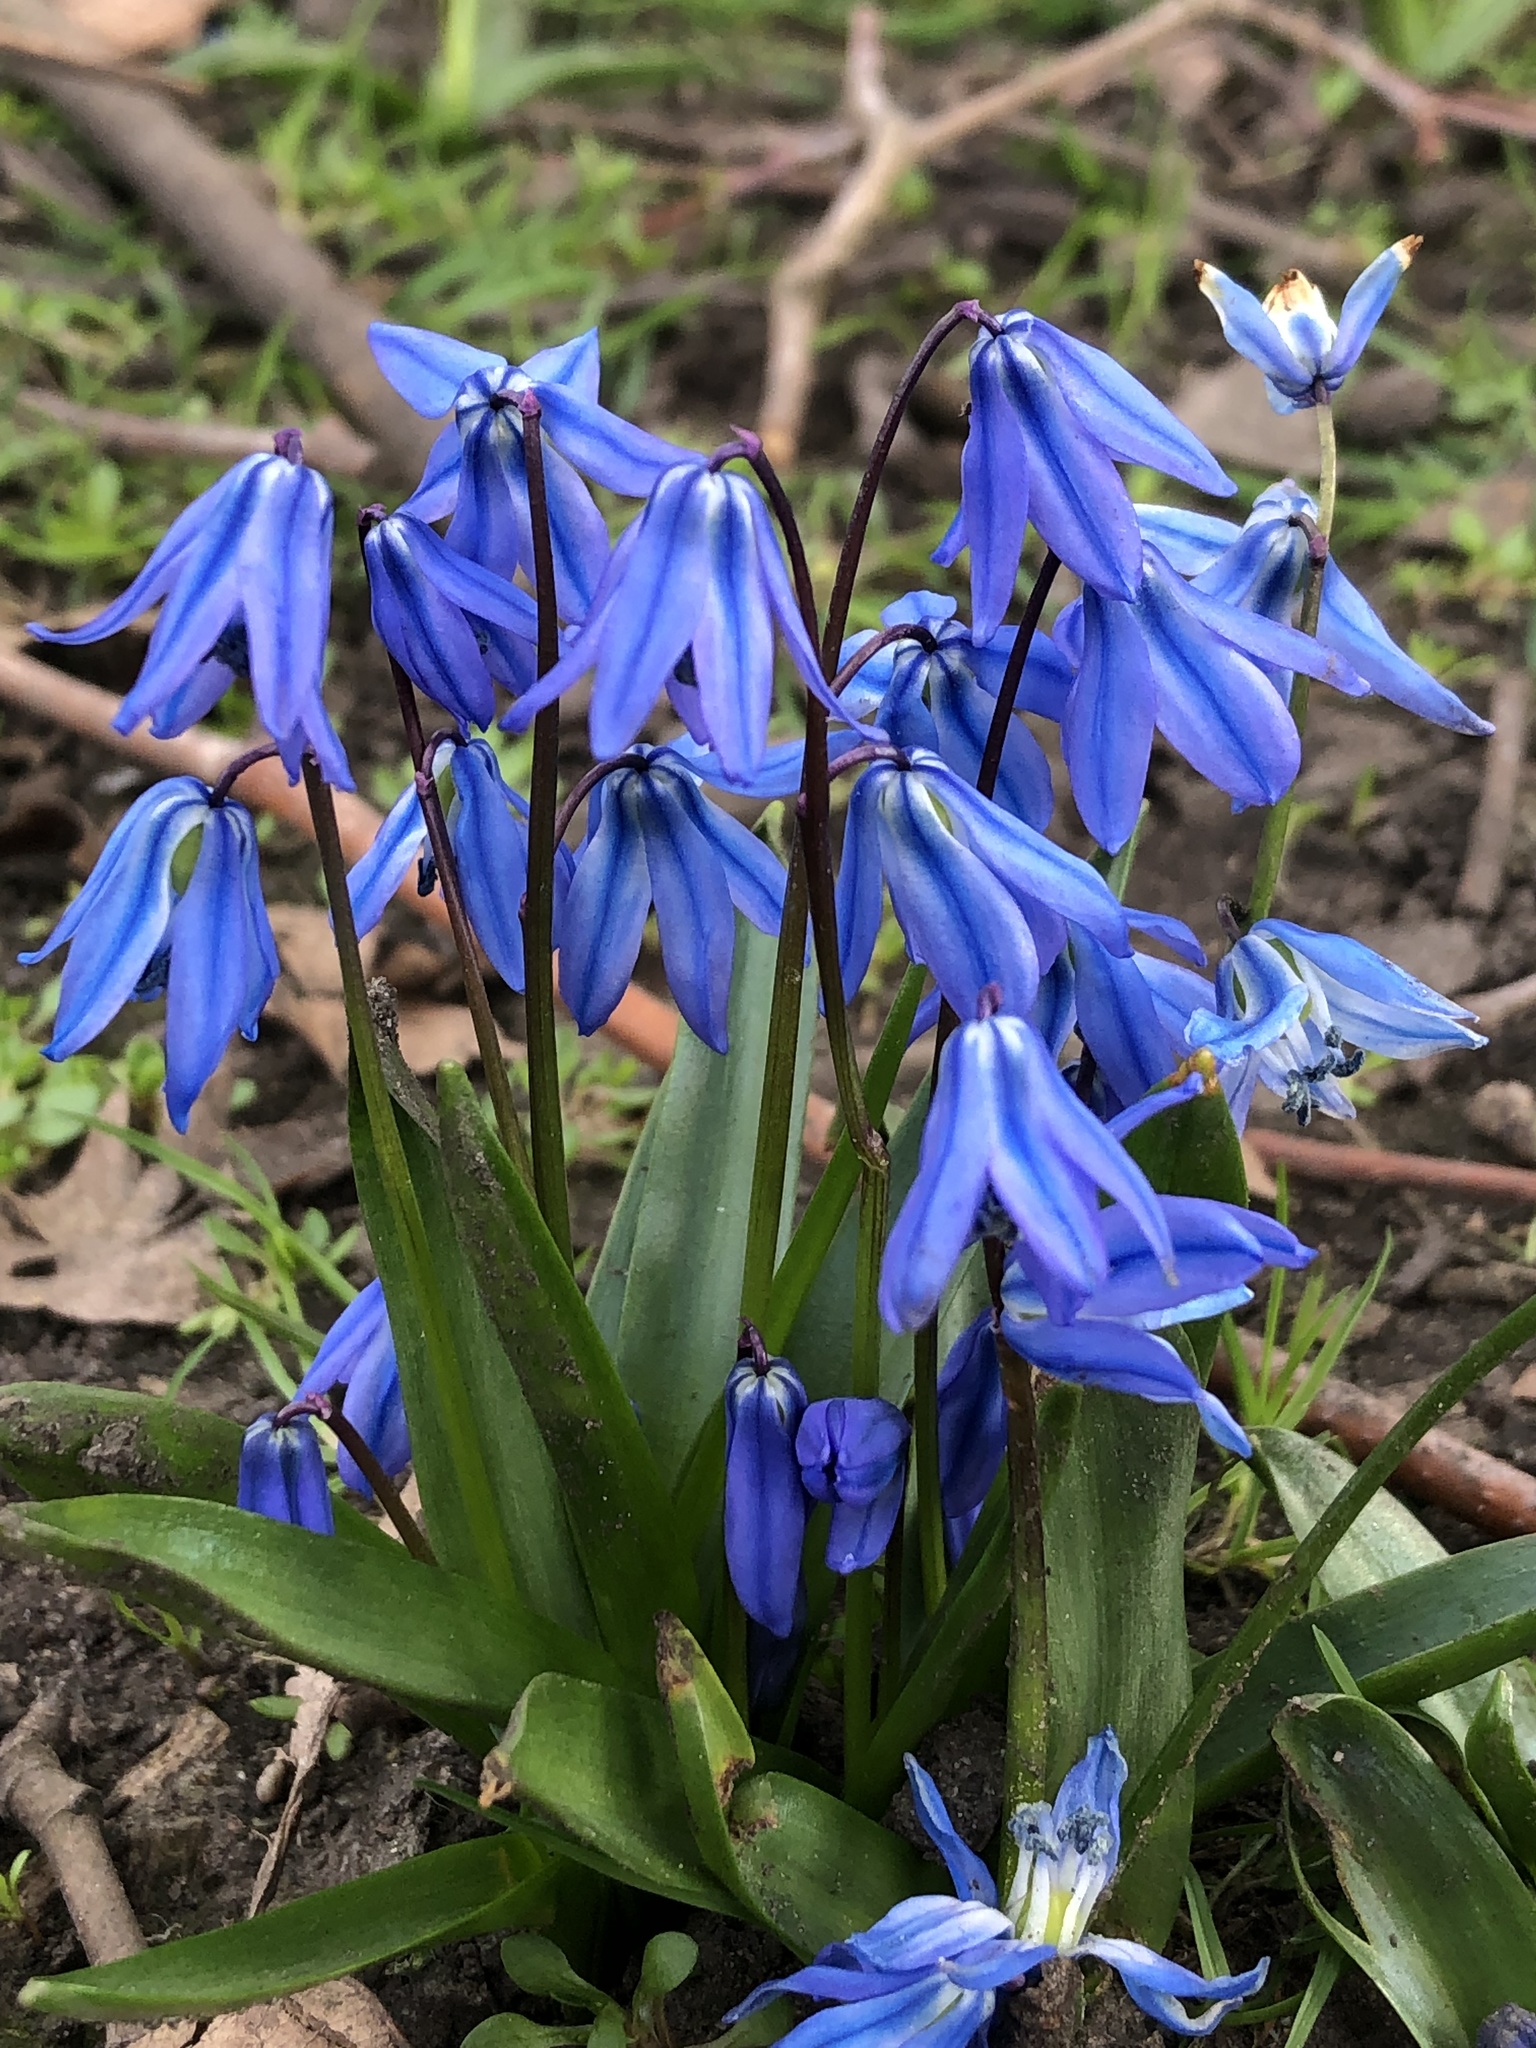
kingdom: Plantae
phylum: Tracheophyta
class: Liliopsida
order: Asparagales
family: Asparagaceae
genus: Scilla
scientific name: Scilla siberica
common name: Siberian squill
